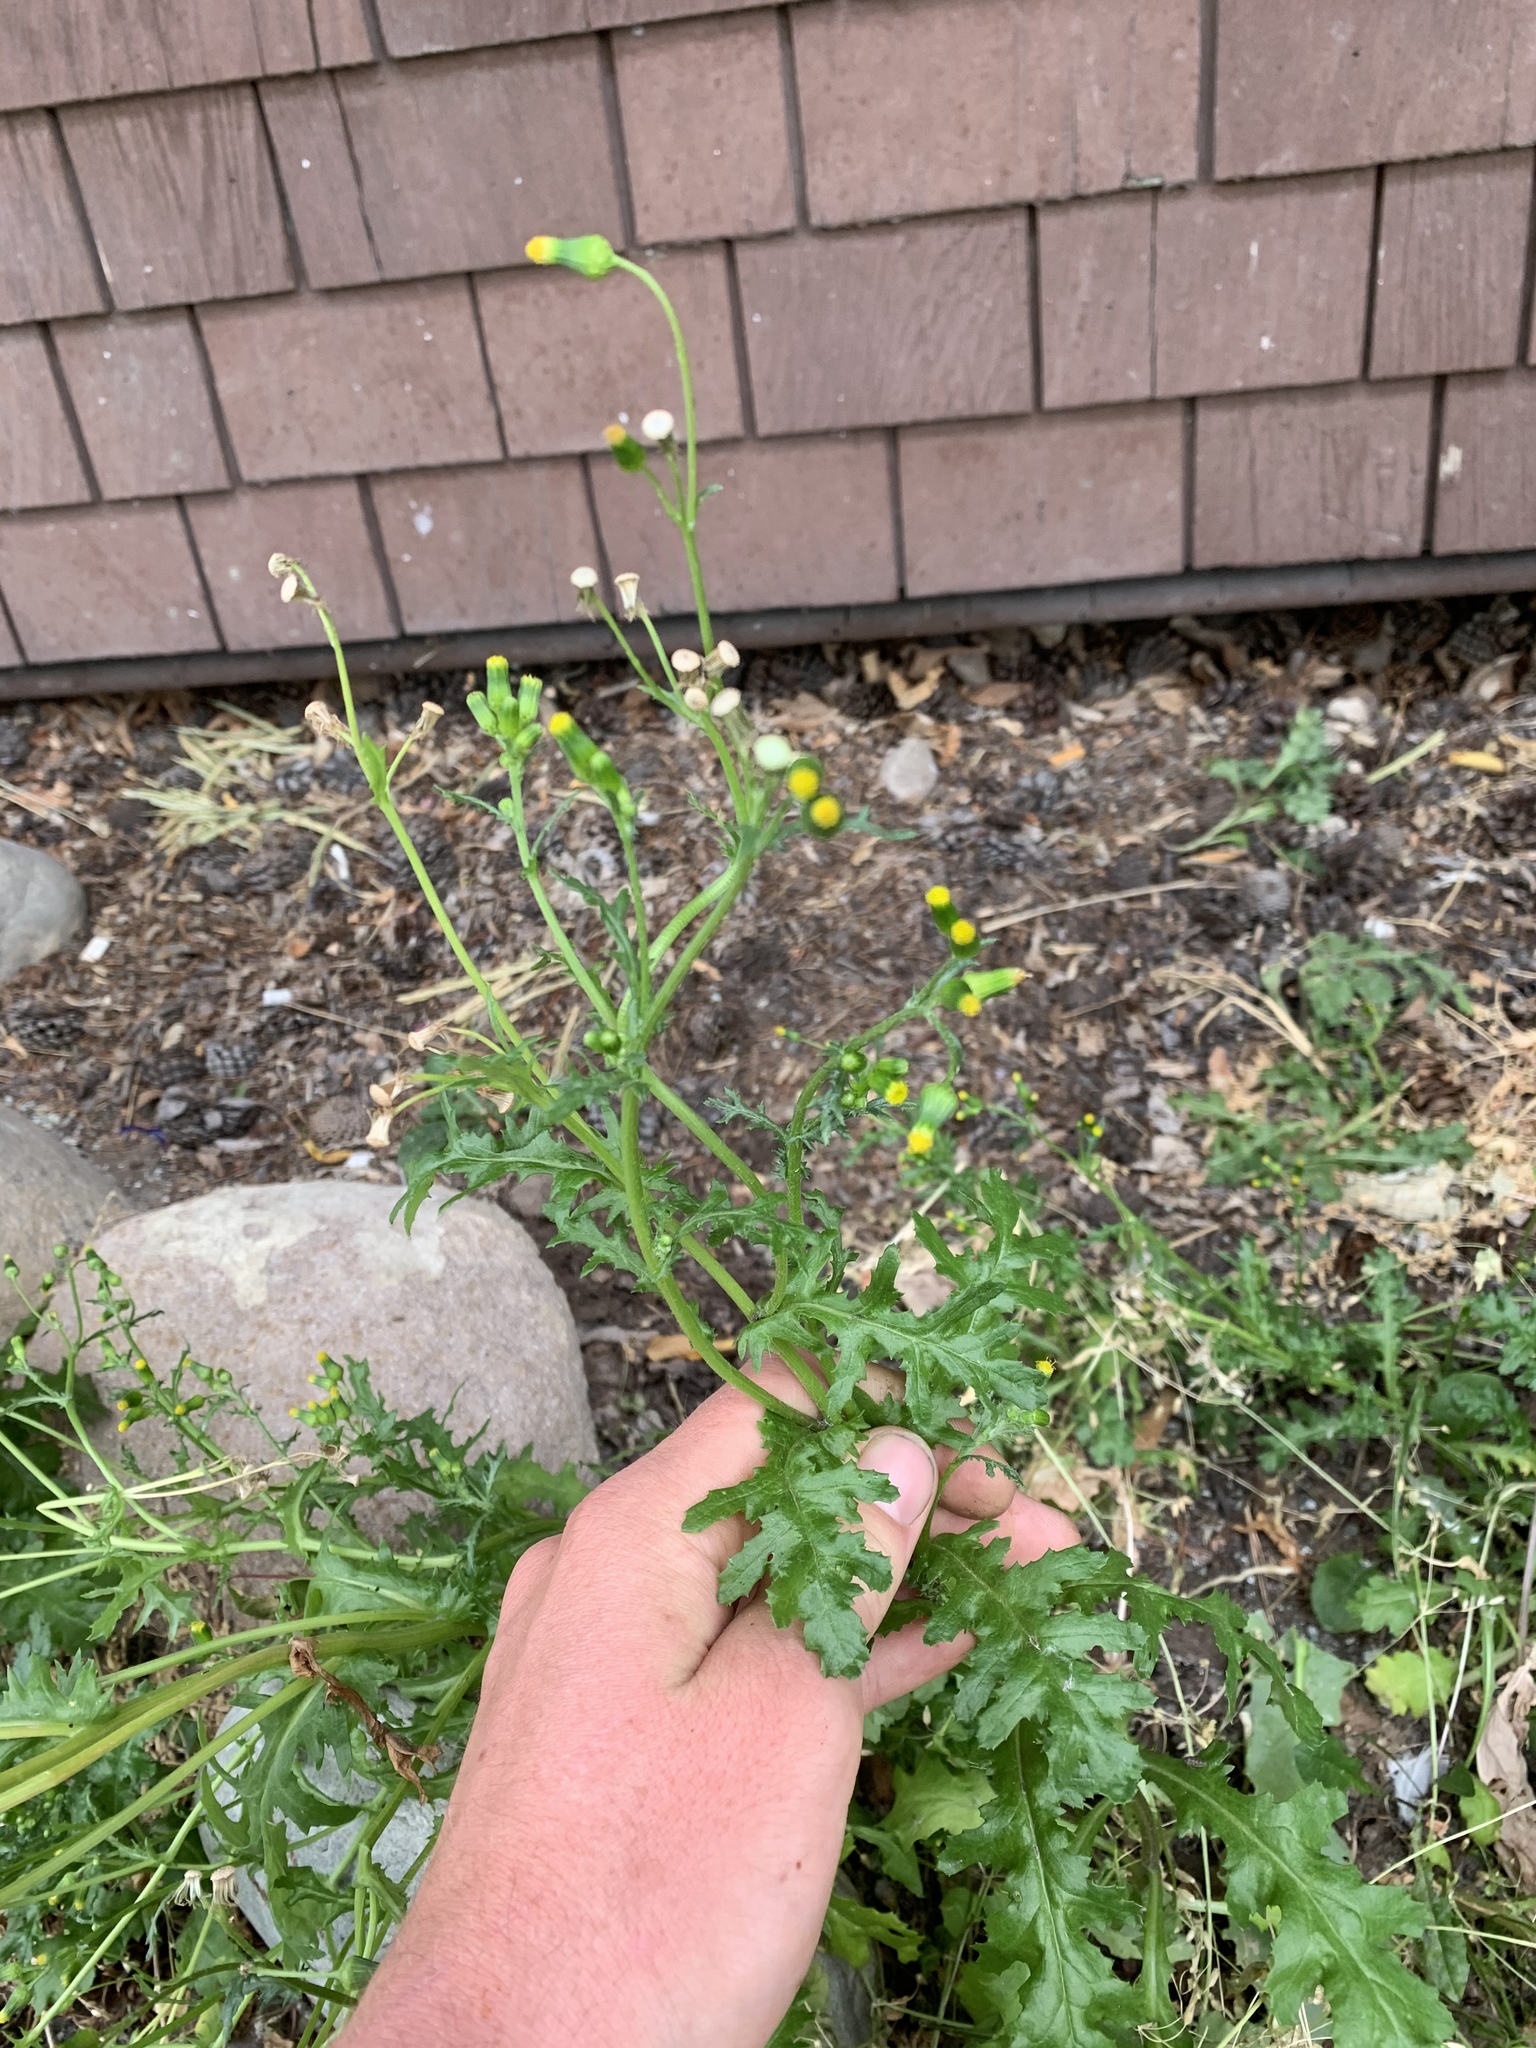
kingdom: Plantae
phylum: Tracheophyta
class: Magnoliopsida
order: Asterales
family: Asteraceae
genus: Senecio
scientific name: Senecio vulgaris
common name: Old-man-in-the-spring
